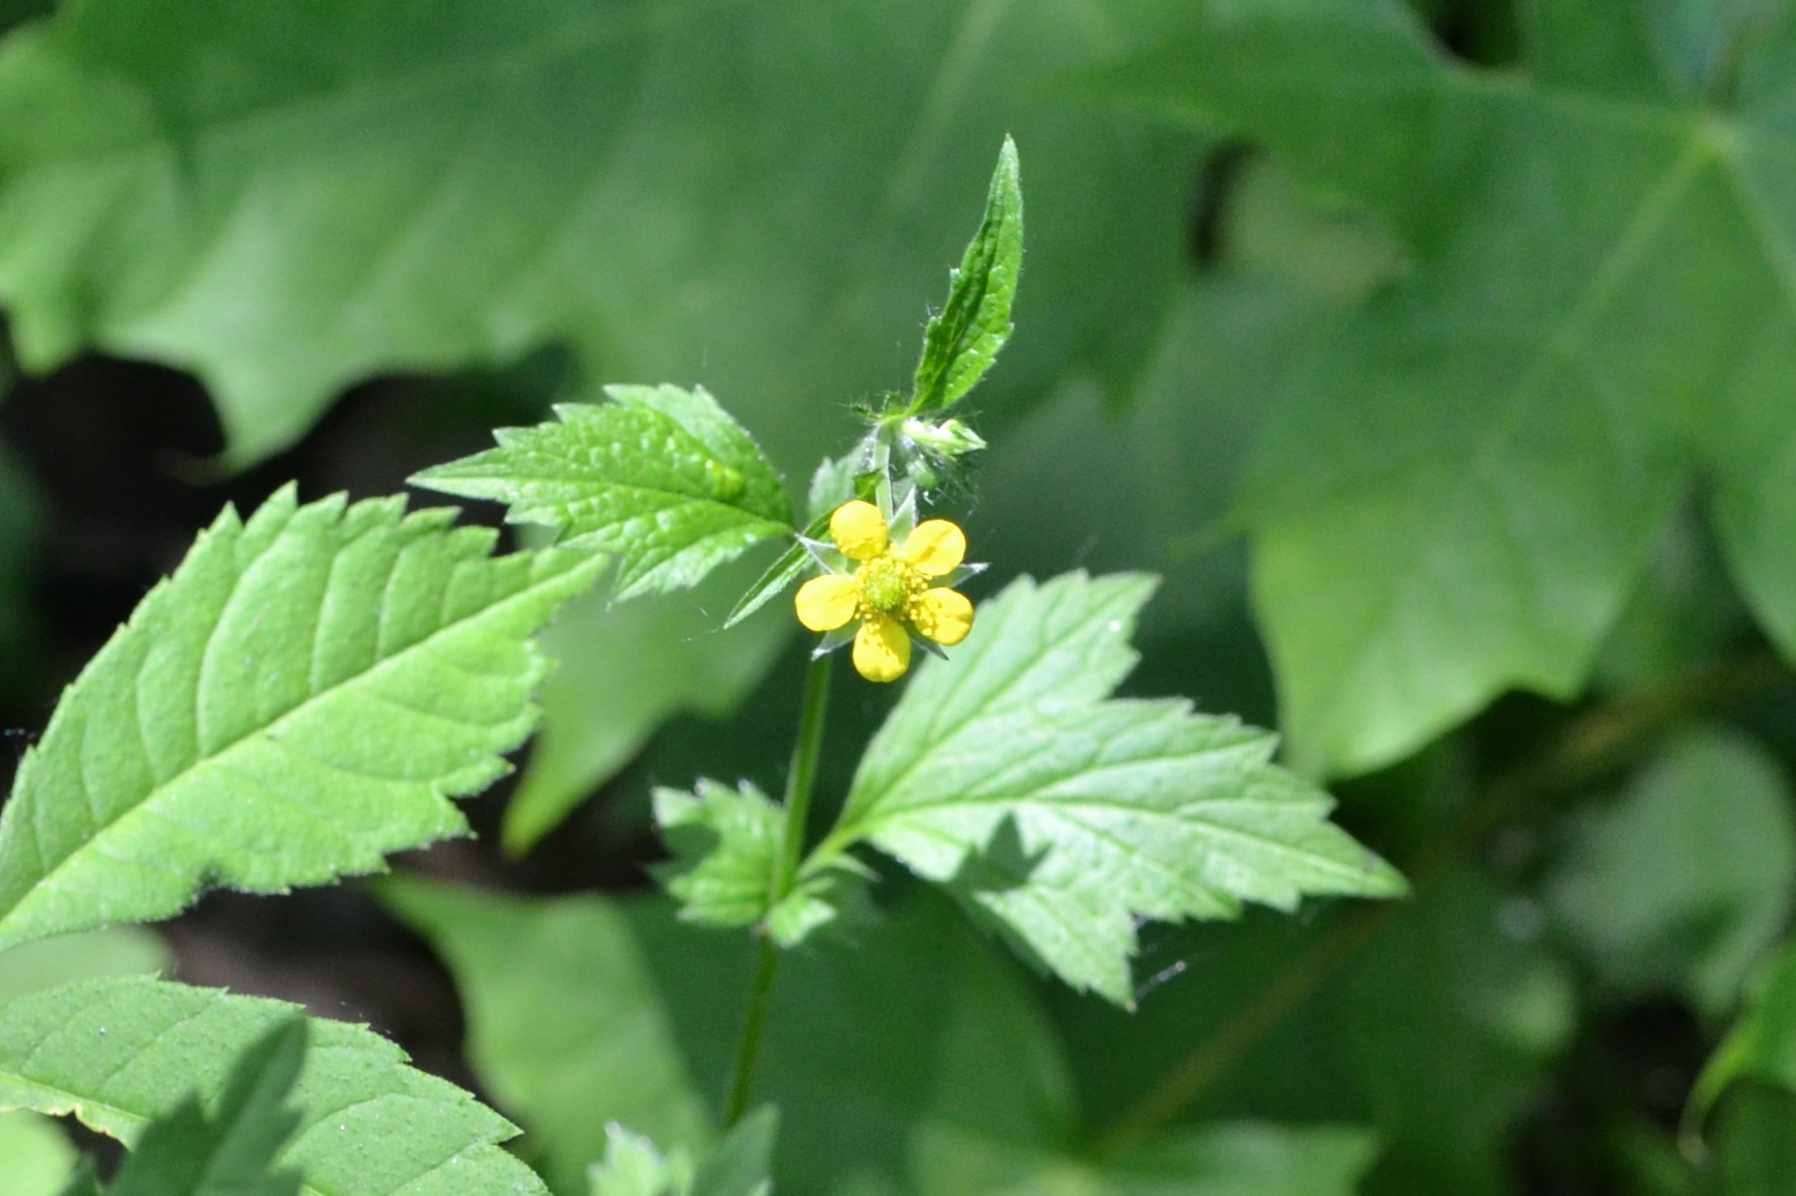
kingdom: Plantae
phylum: Tracheophyta
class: Magnoliopsida
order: Rosales
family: Rosaceae
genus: Geum
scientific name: Geum urbanum
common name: Wood avens
